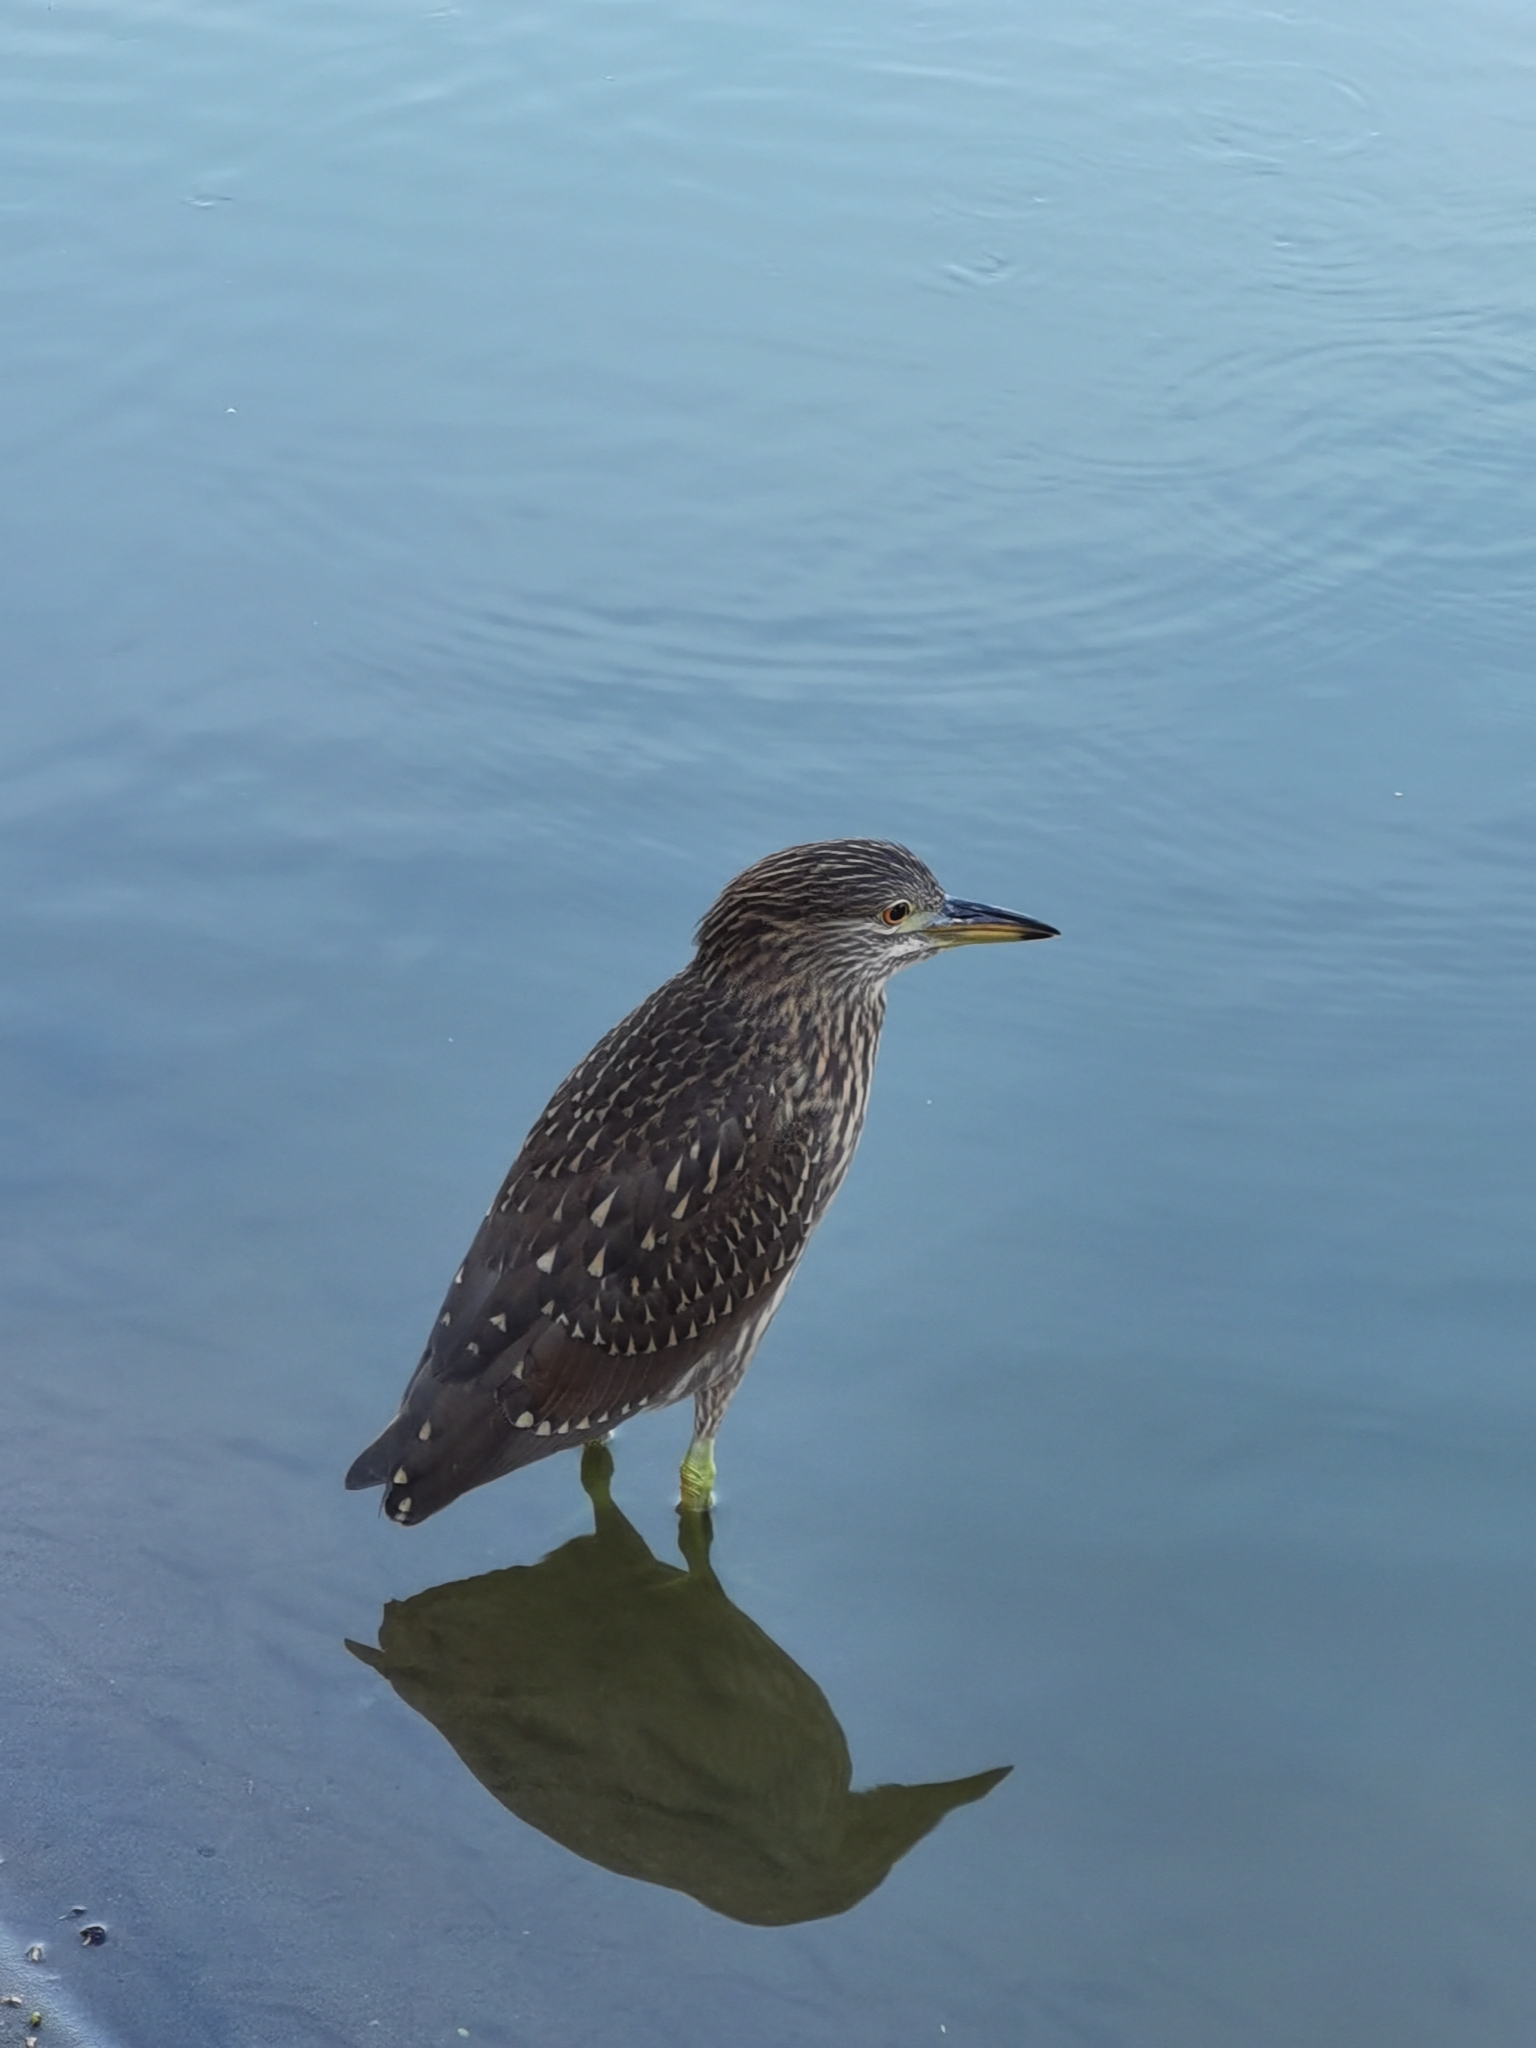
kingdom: Animalia
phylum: Chordata
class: Aves
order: Pelecaniformes
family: Ardeidae
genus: Nycticorax
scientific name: Nycticorax nycticorax
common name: Black-crowned night heron
